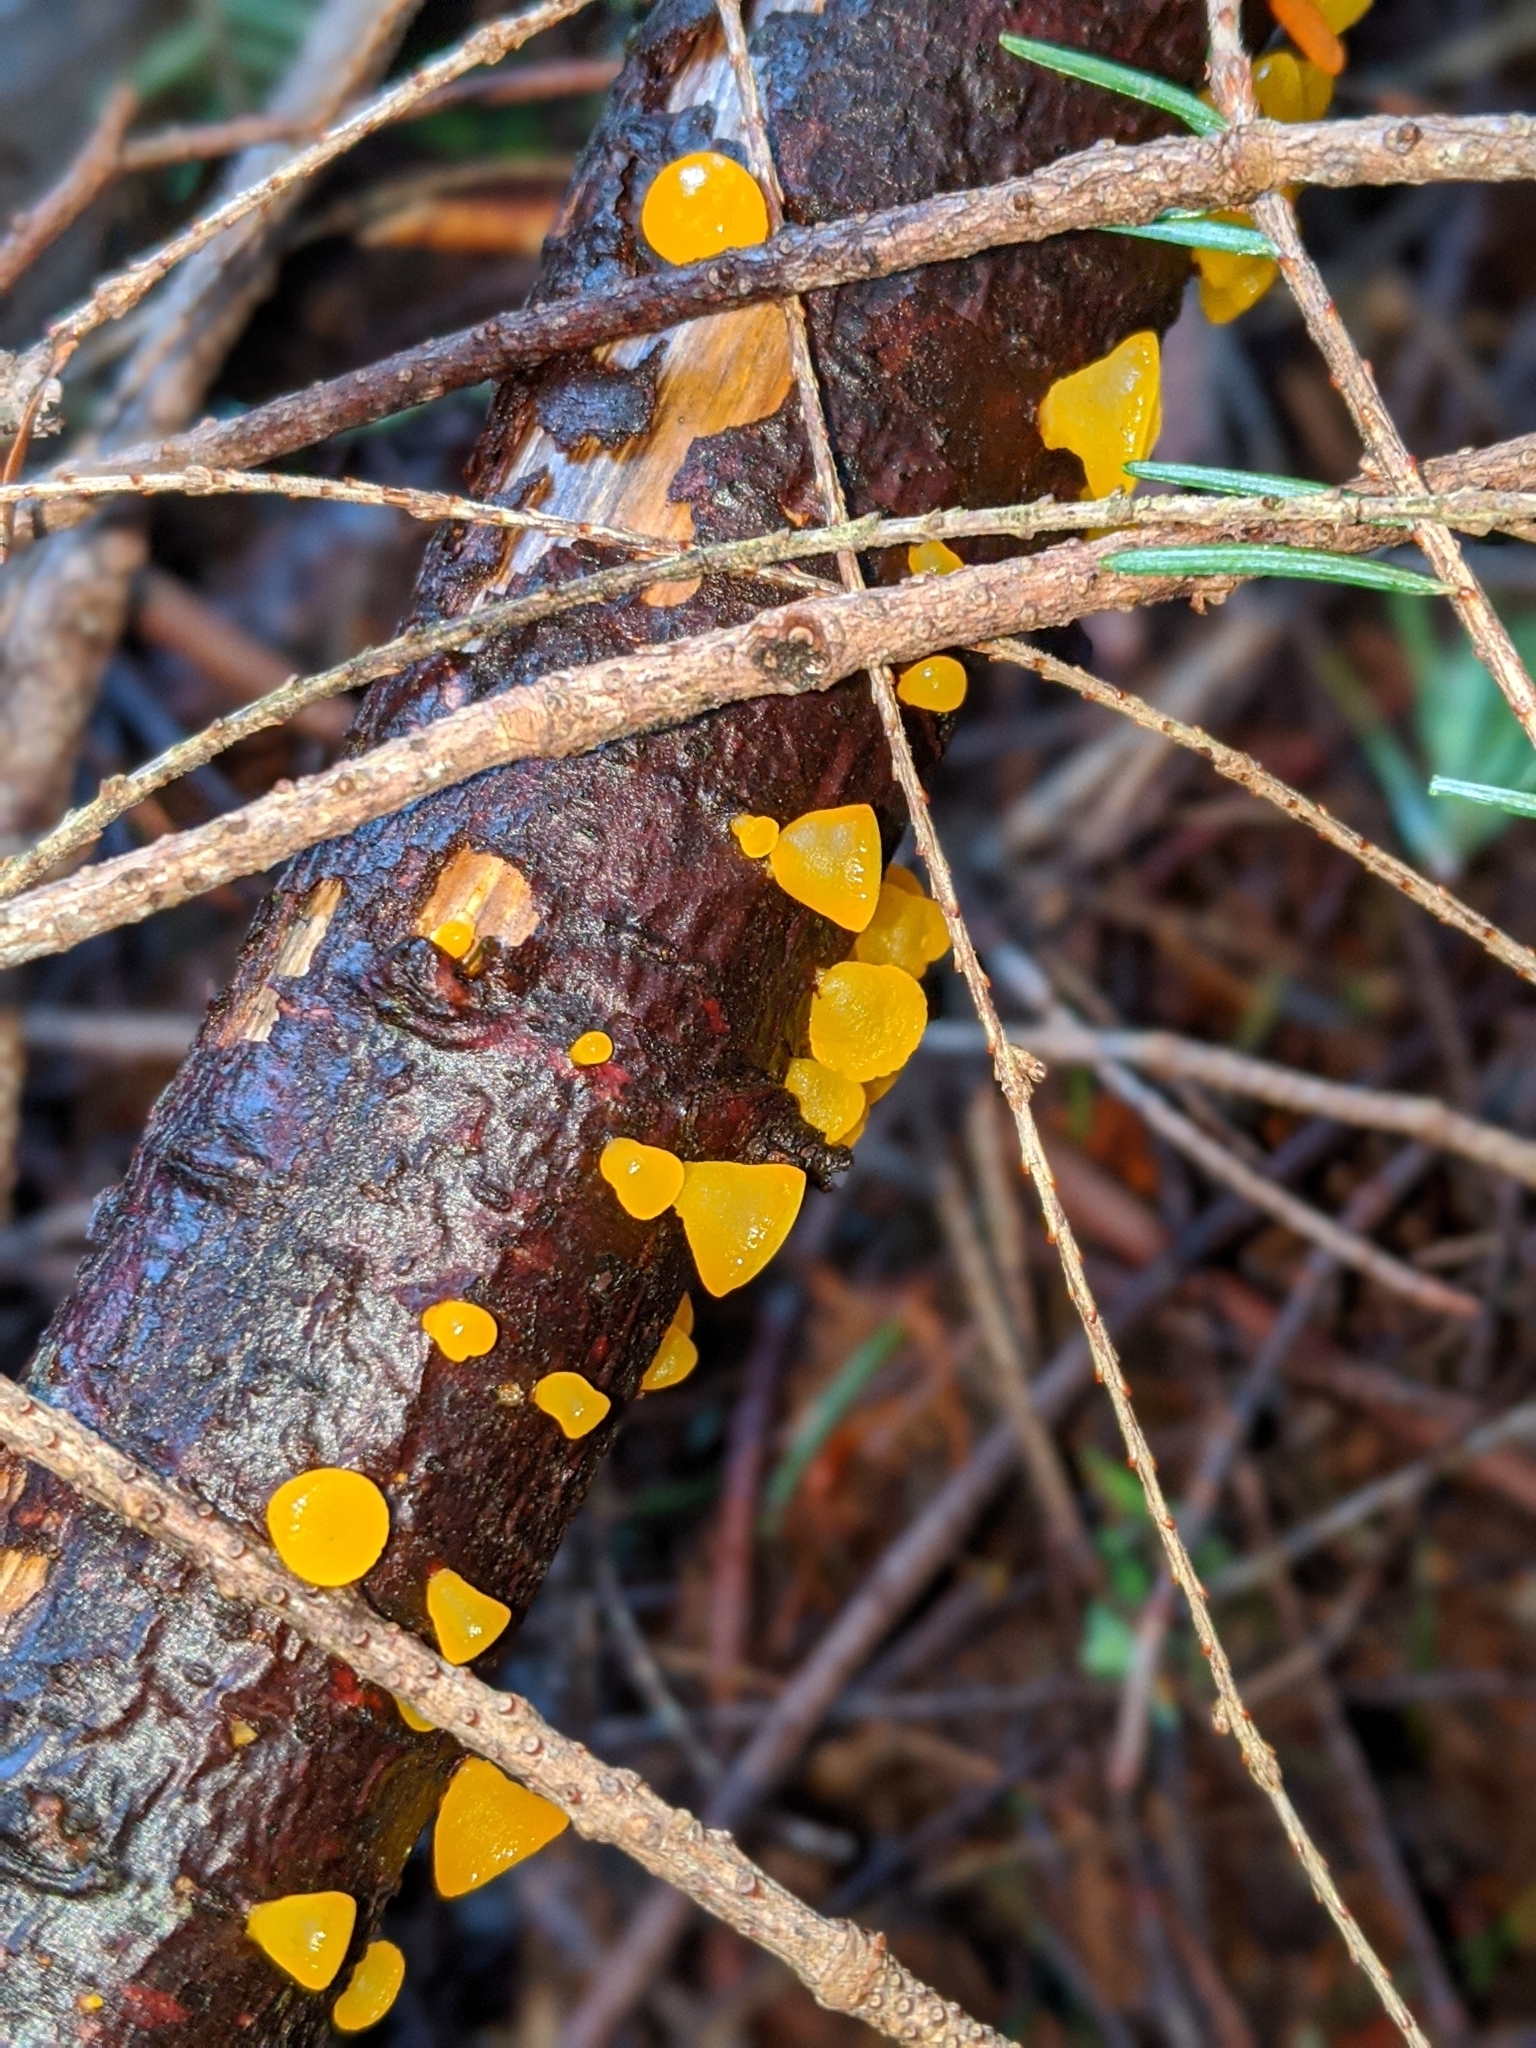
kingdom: Fungi
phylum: Basidiomycota
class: Dacrymycetes
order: Dacrymycetales
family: Dacrymycetaceae
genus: Guepiniopsis
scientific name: Guepiniopsis alpina
